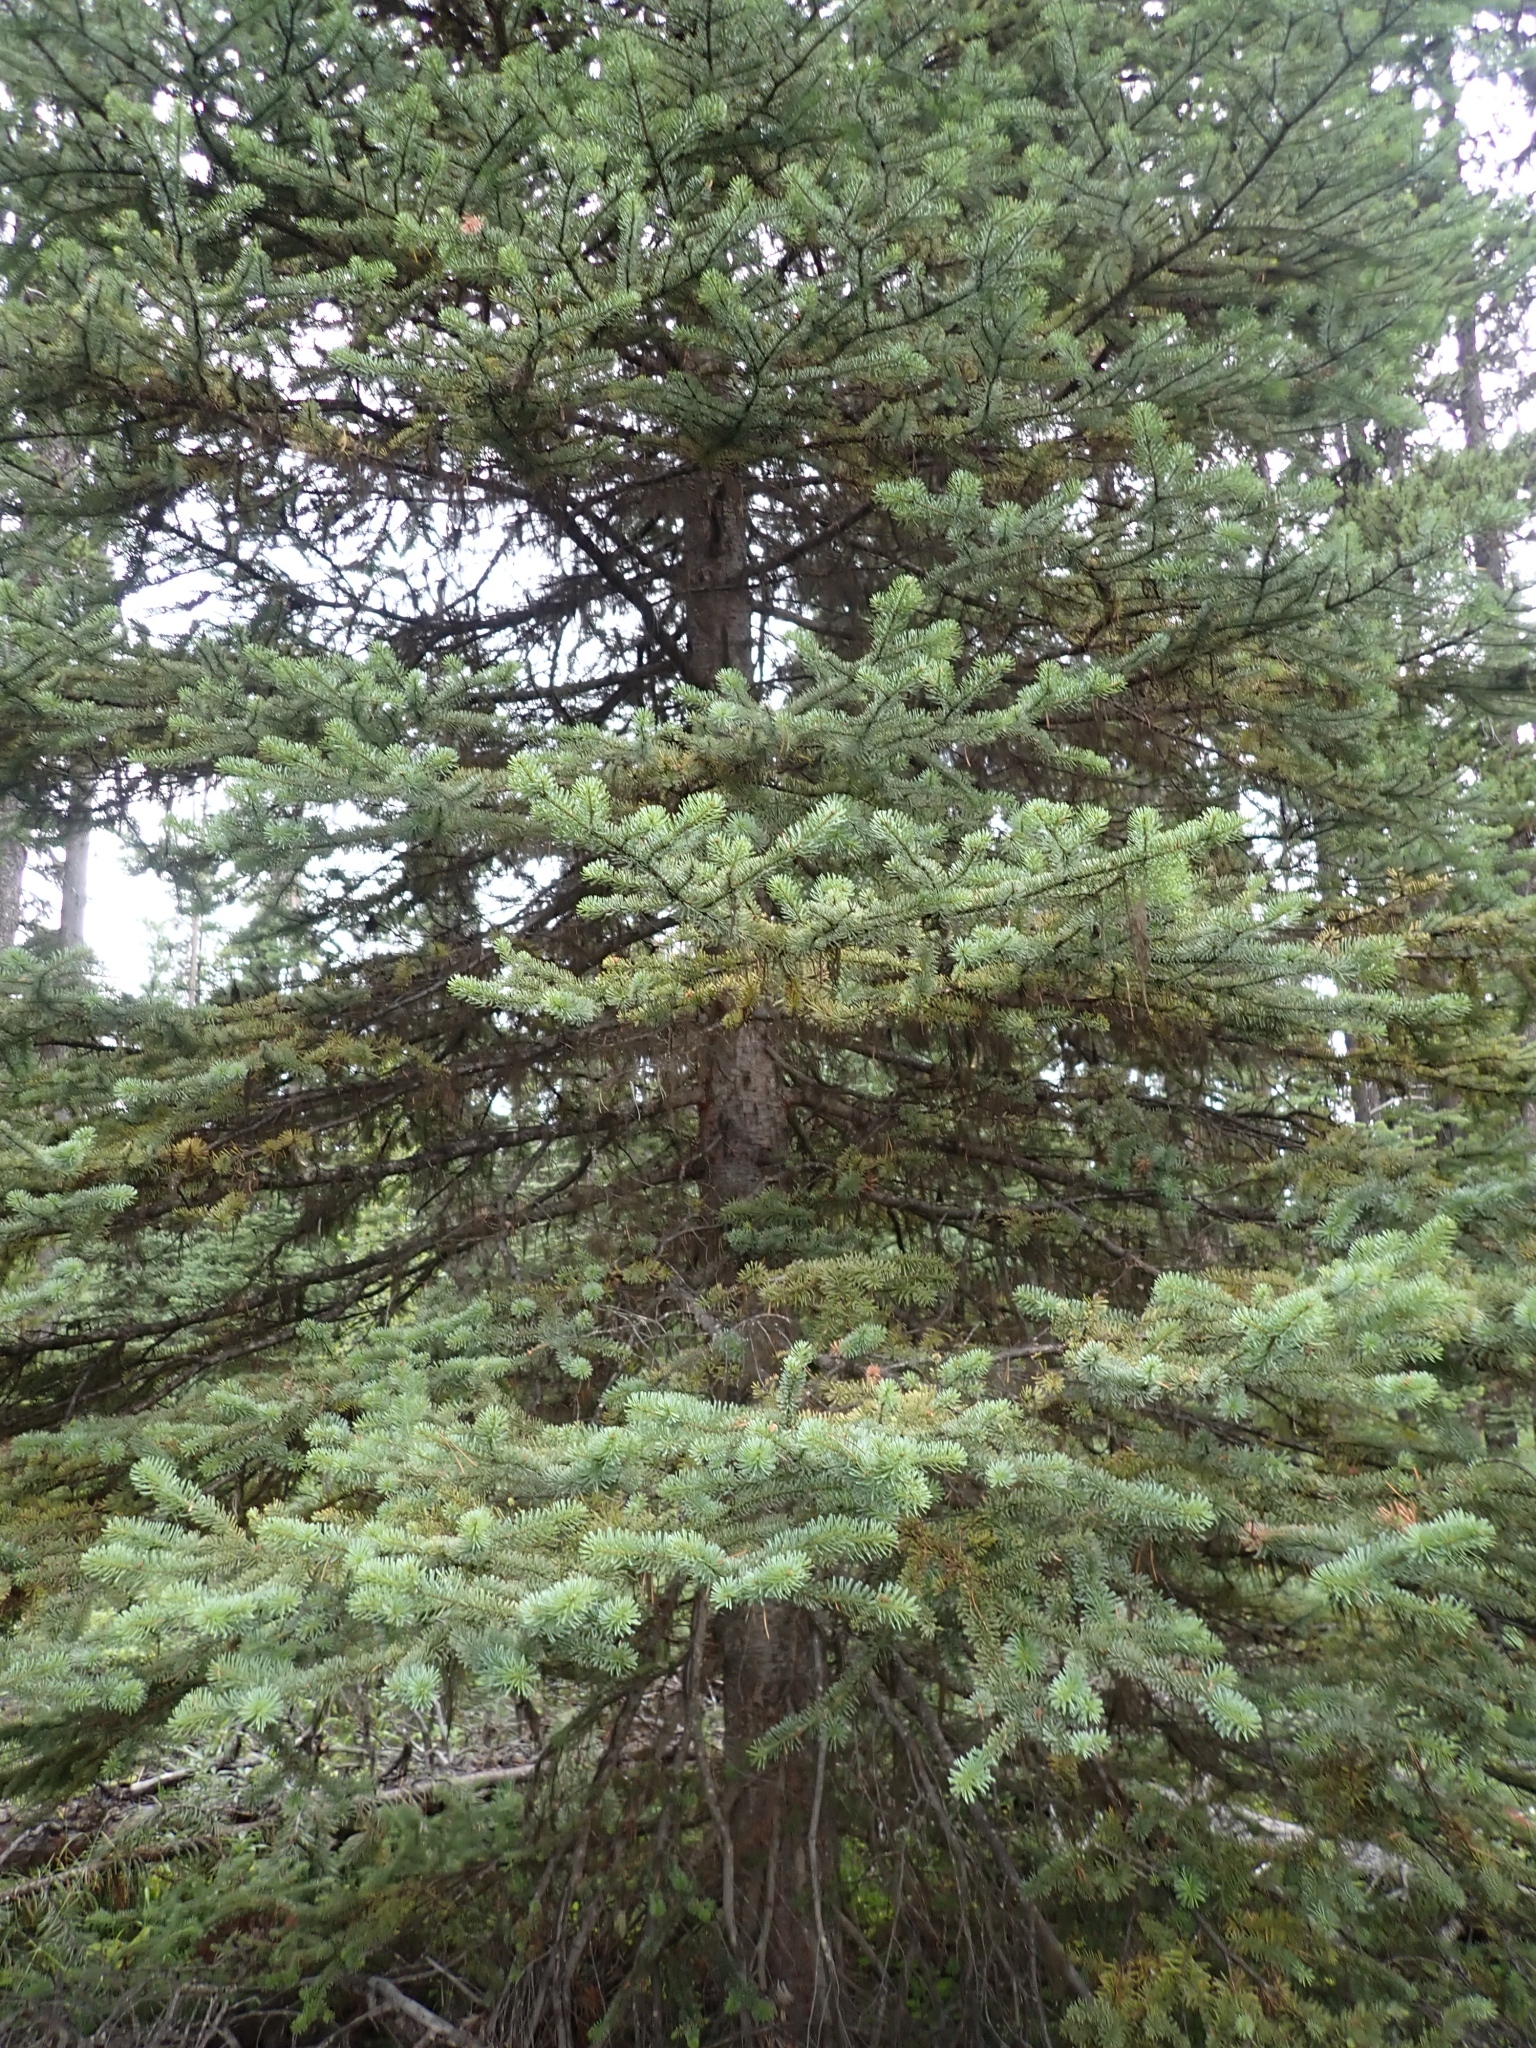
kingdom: Plantae
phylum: Tracheophyta
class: Pinopsida
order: Pinales
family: Pinaceae
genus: Abies
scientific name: Abies lasiocarpa
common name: Subalpine fir
